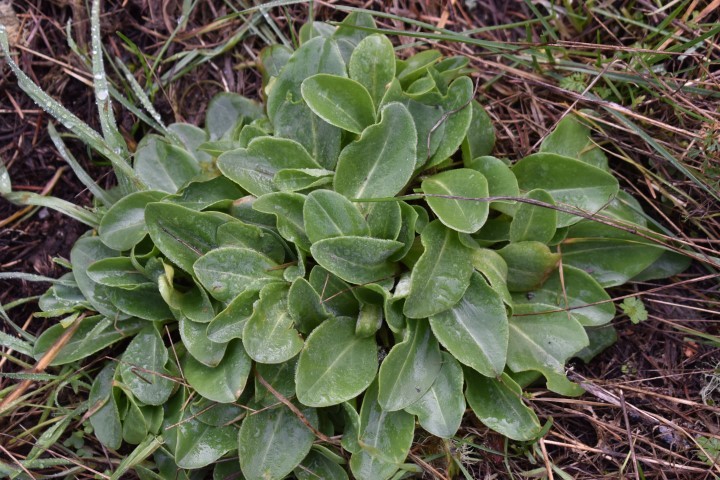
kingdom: Plantae
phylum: Tracheophyta
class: Magnoliopsida
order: Ericales
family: Primulaceae
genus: Dodecatheon
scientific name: Dodecatheon hendersonii
